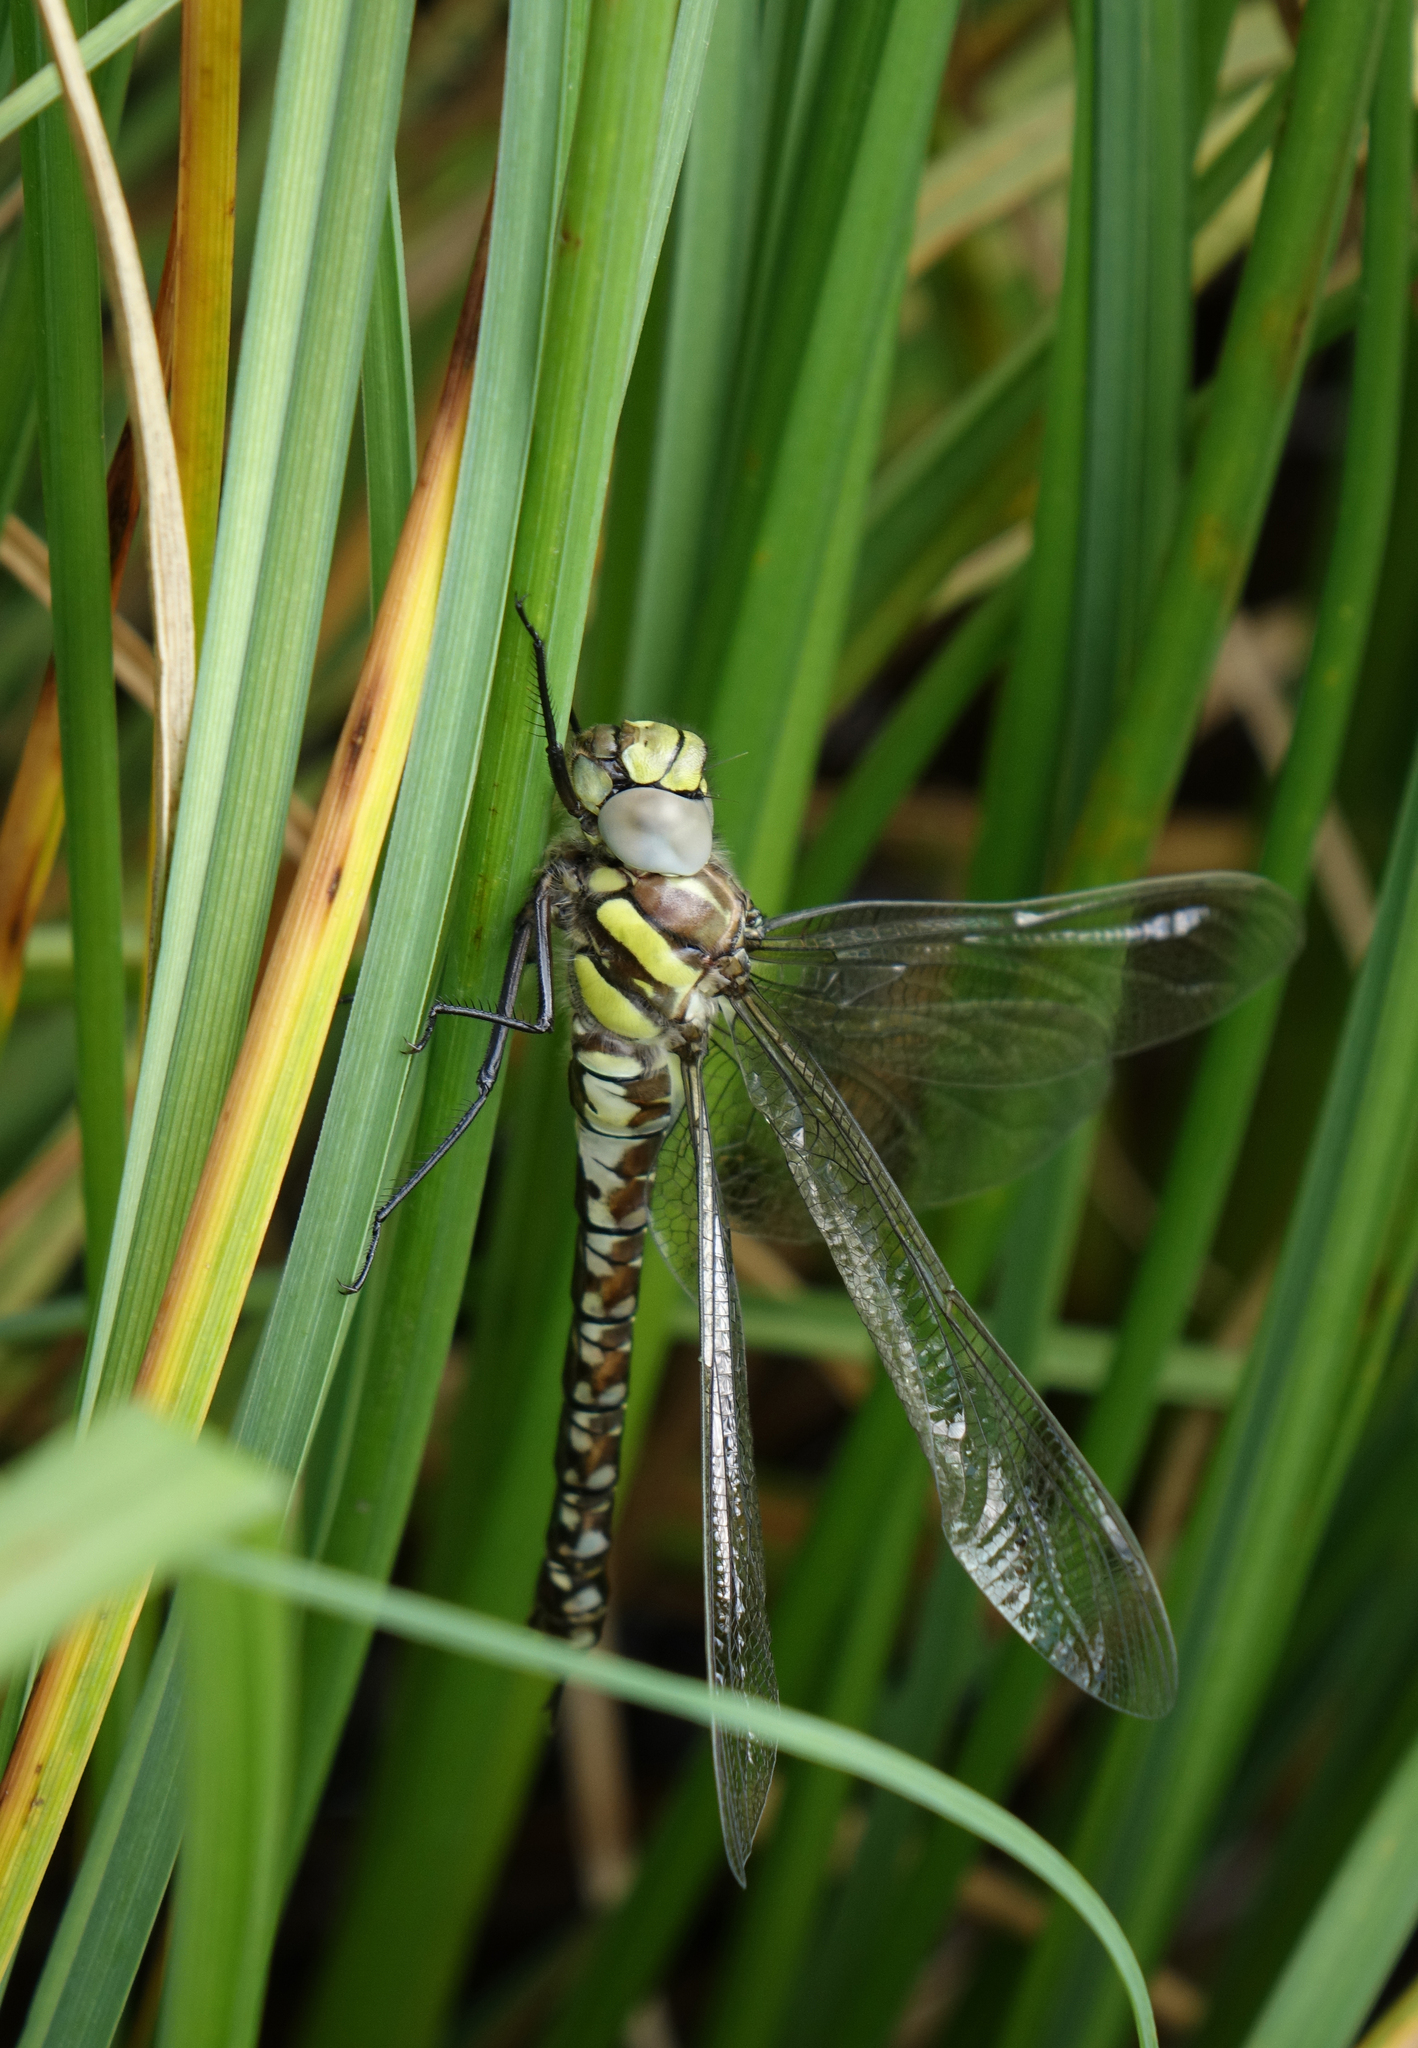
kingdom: Animalia
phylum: Arthropoda
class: Insecta
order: Odonata
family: Aeshnidae
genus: Aeshna
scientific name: Aeshna juncea
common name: Moorland hawker
